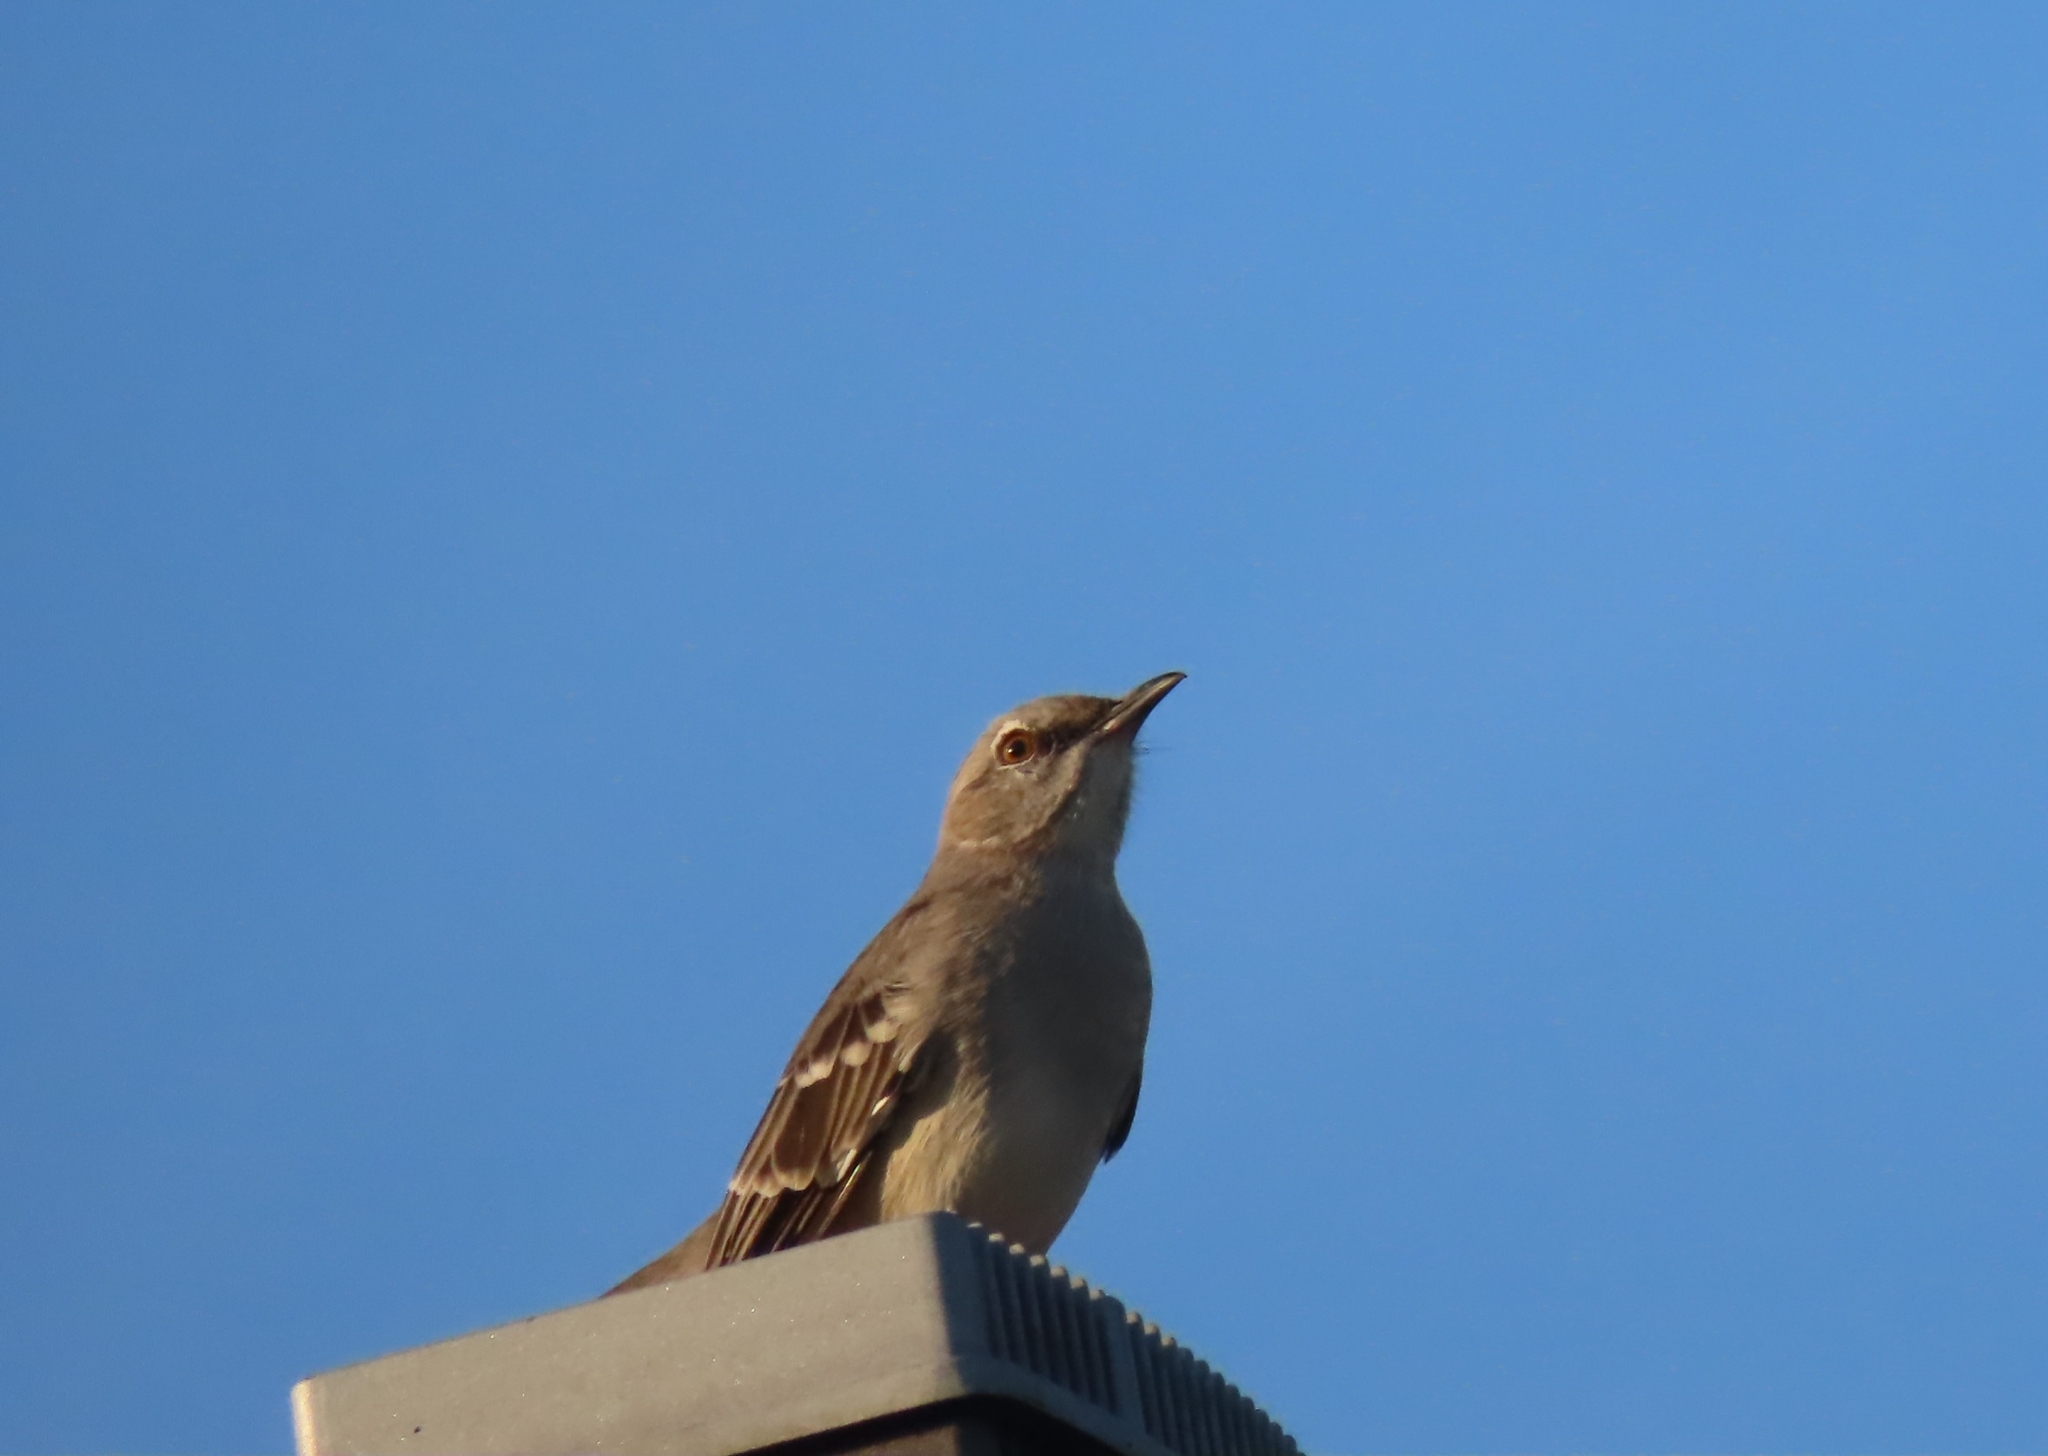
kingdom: Animalia
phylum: Chordata
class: Aves
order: Passeriformes
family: Mimidae
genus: Mimus
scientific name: Mimus polyglottos
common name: Northern mockingbird
